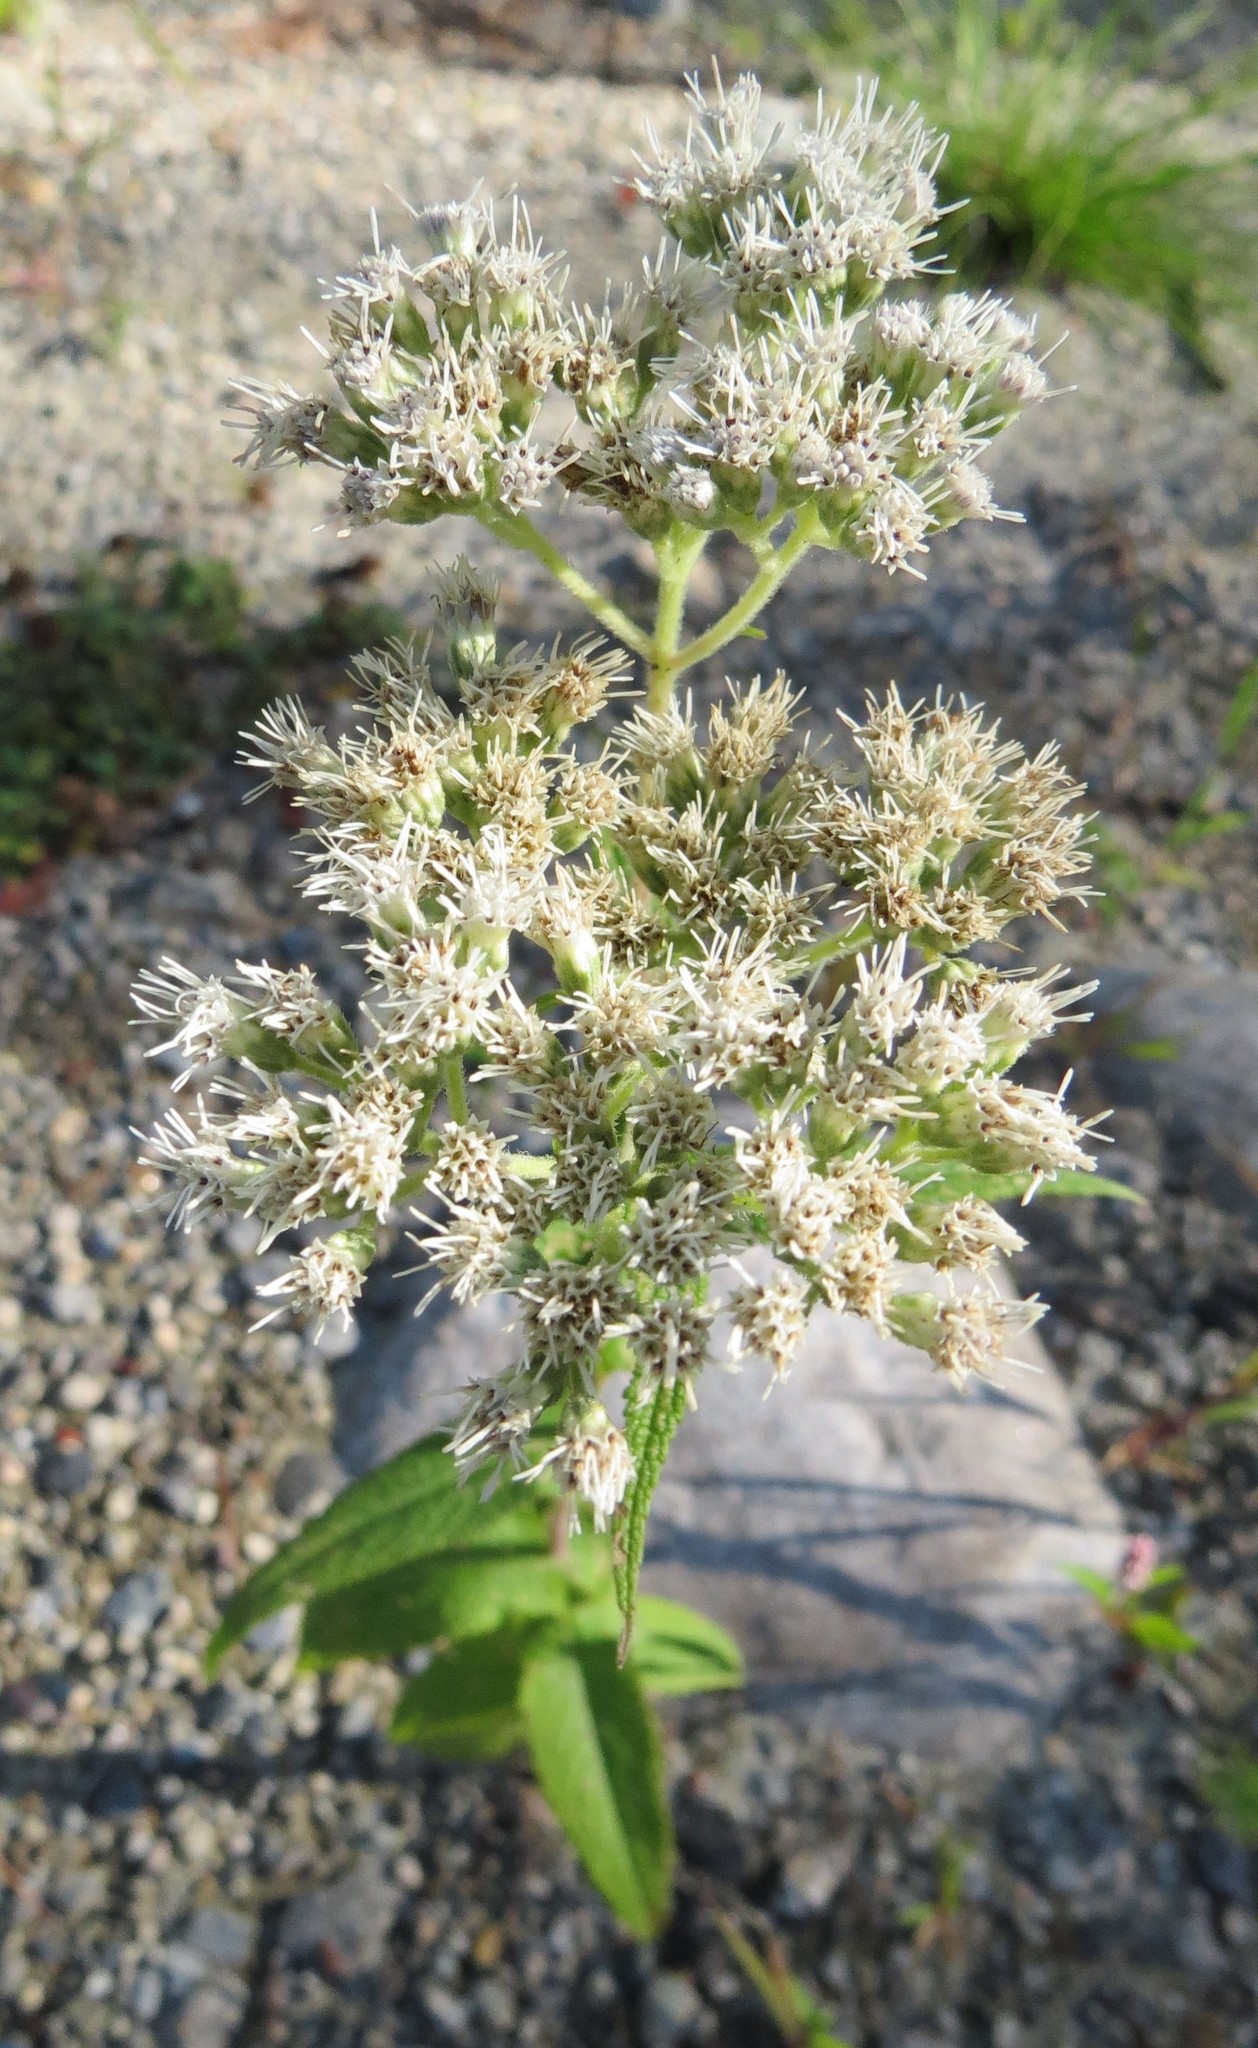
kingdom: Plantae
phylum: Tracheophyta
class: Magnoliopsida
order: Asterales
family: Asteraceae
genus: Eupatorium
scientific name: Eupatorium perfoliatum
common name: Boneset
